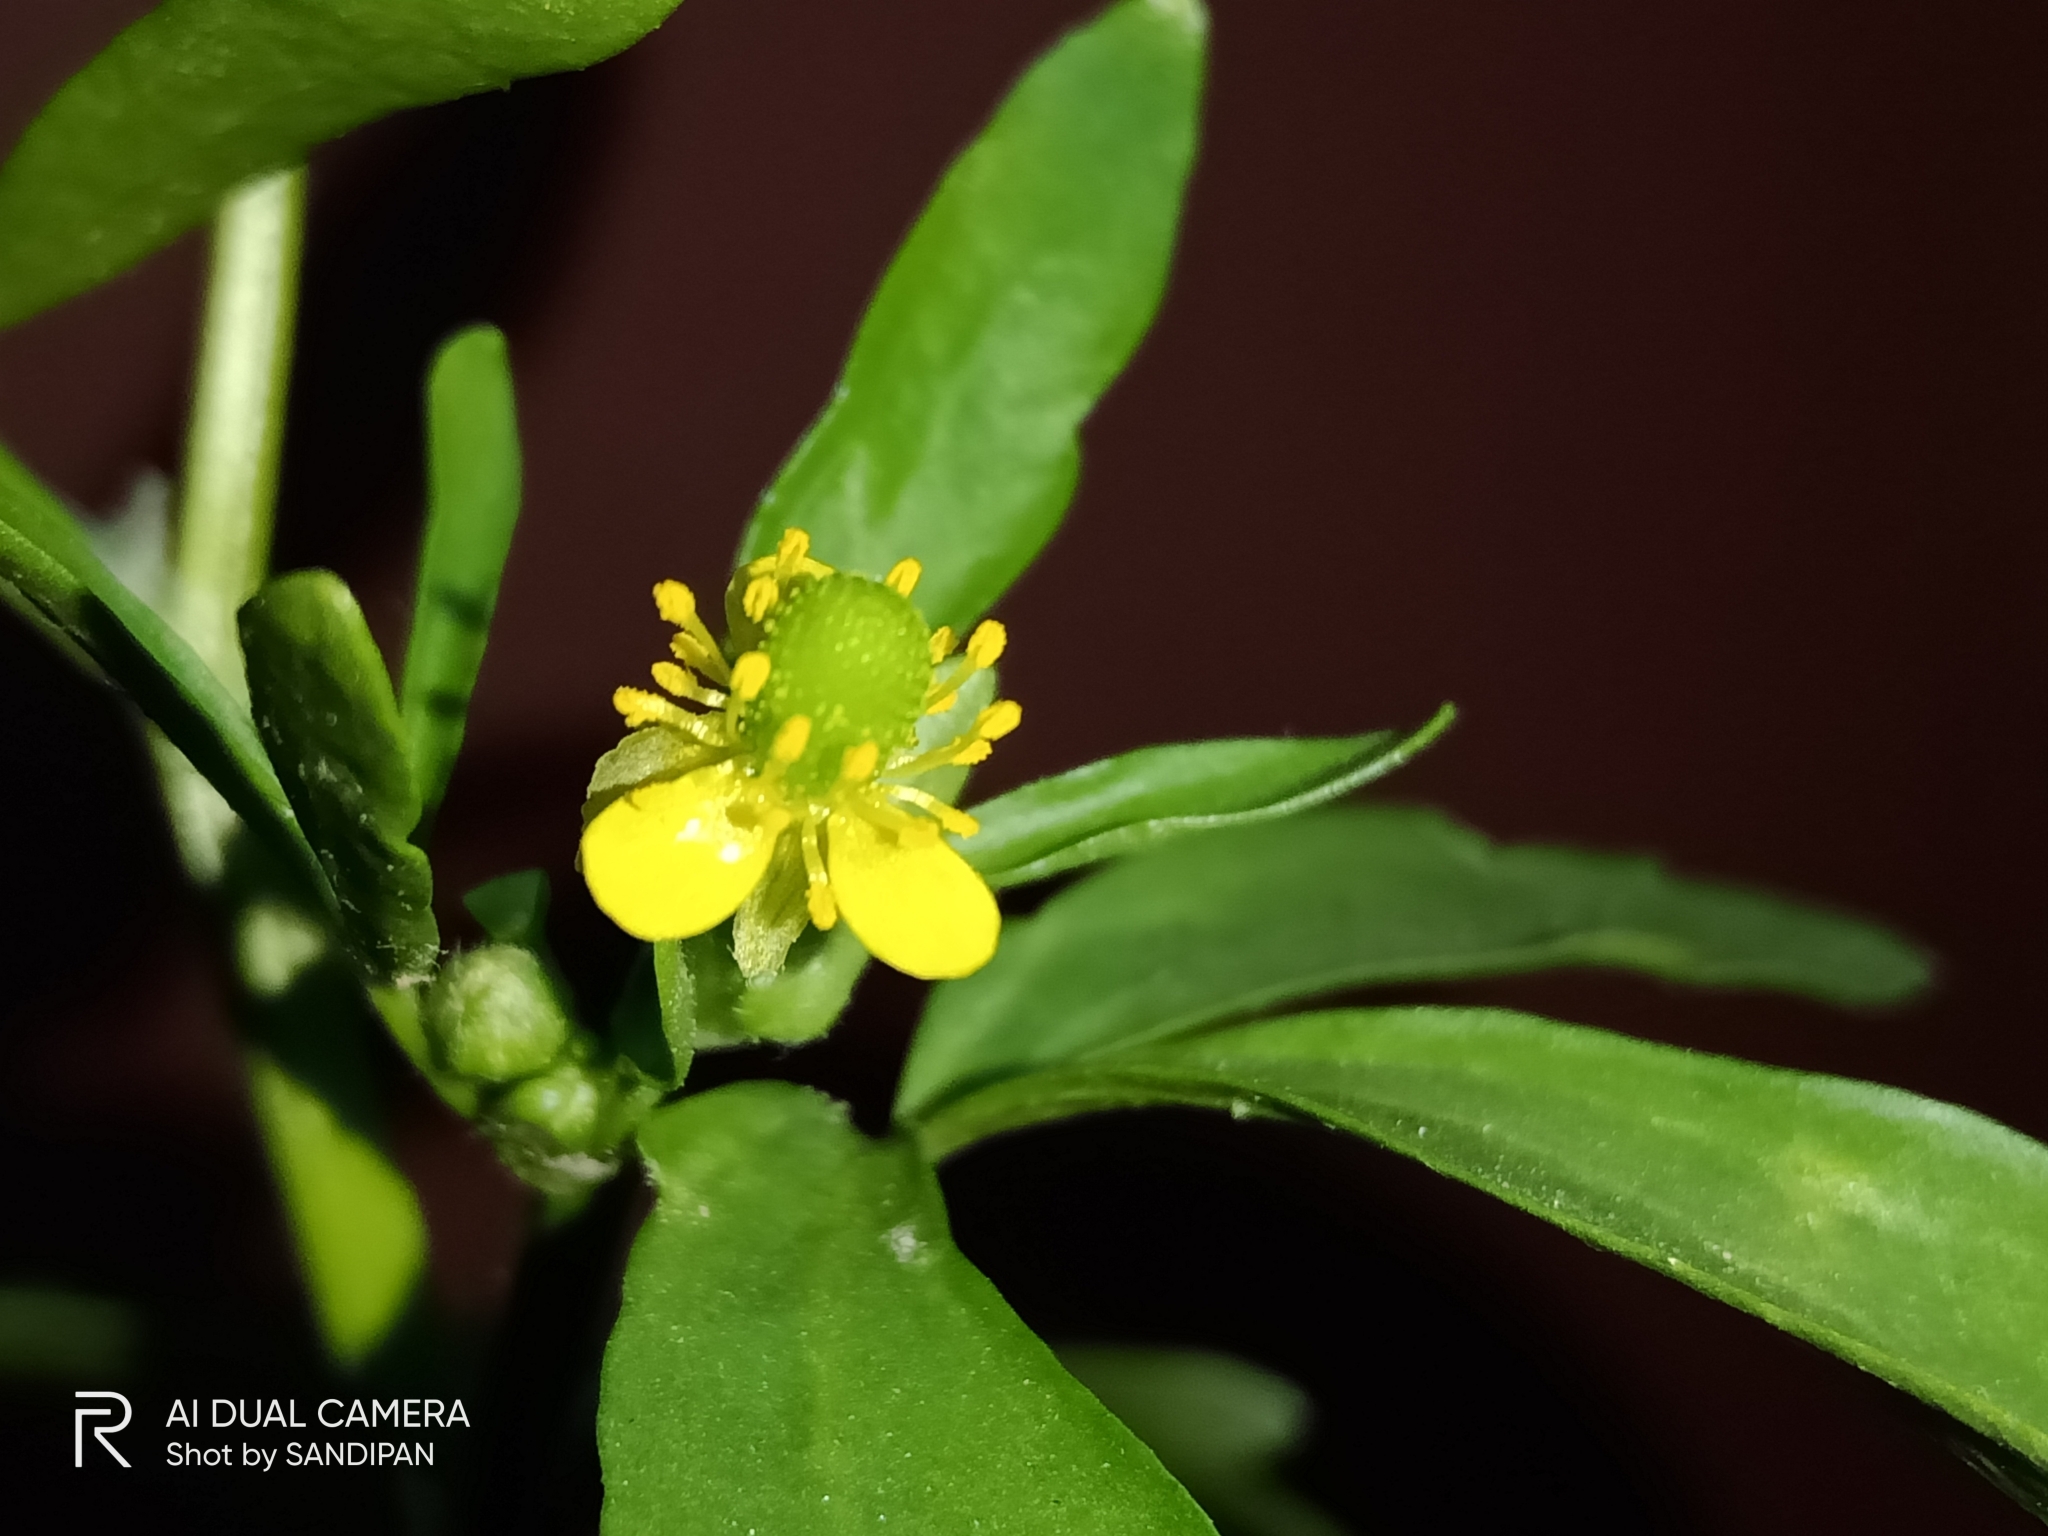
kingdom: Plantae
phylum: Tracheophyta
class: Magnoliopsida
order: Ranunculales
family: Ranunculaceae
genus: Ranunculus
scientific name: Ranunculus sceleratus
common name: Celery-leaved buttercup
